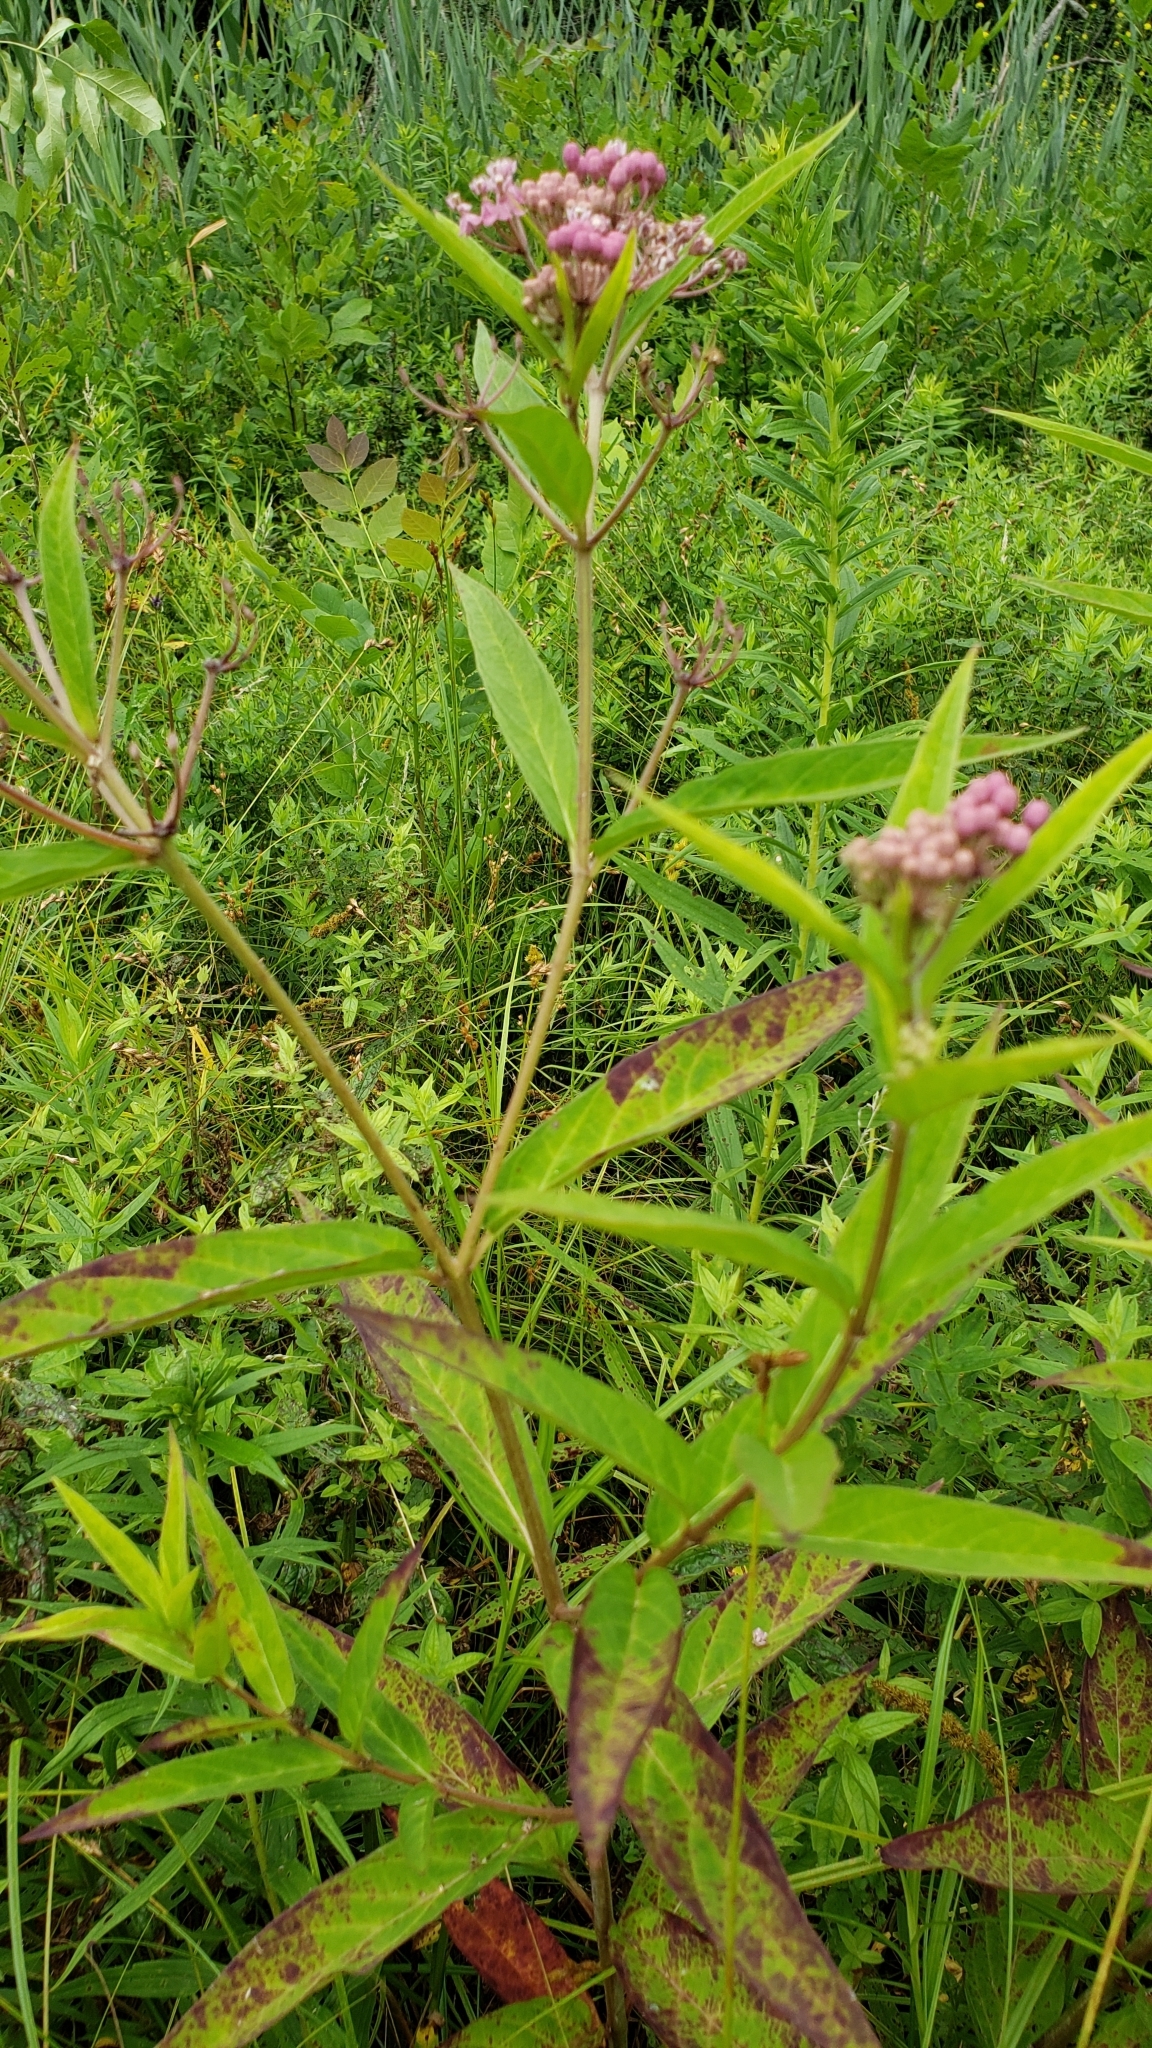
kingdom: Plantae
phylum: Tracheophyta
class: Magnoliopsida
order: Gentianales
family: Apocynaceae
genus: Asclepias
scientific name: Asclepias incarnata
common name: Swamp milkweed
